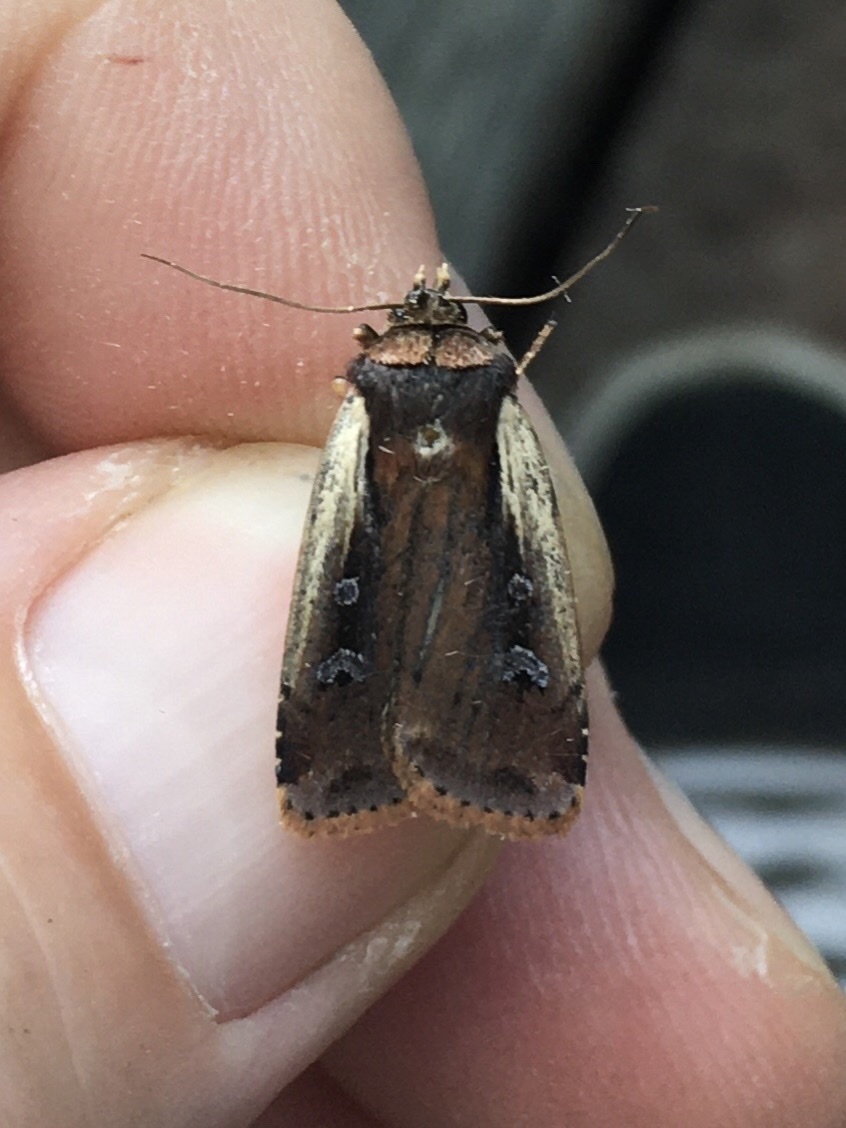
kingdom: Animalia
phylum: Arthropoda
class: Insecta
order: Lepidoptera
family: Noctuidae
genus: Ochropleura
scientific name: Ochropleura implecta
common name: Flame-shouldered dart
